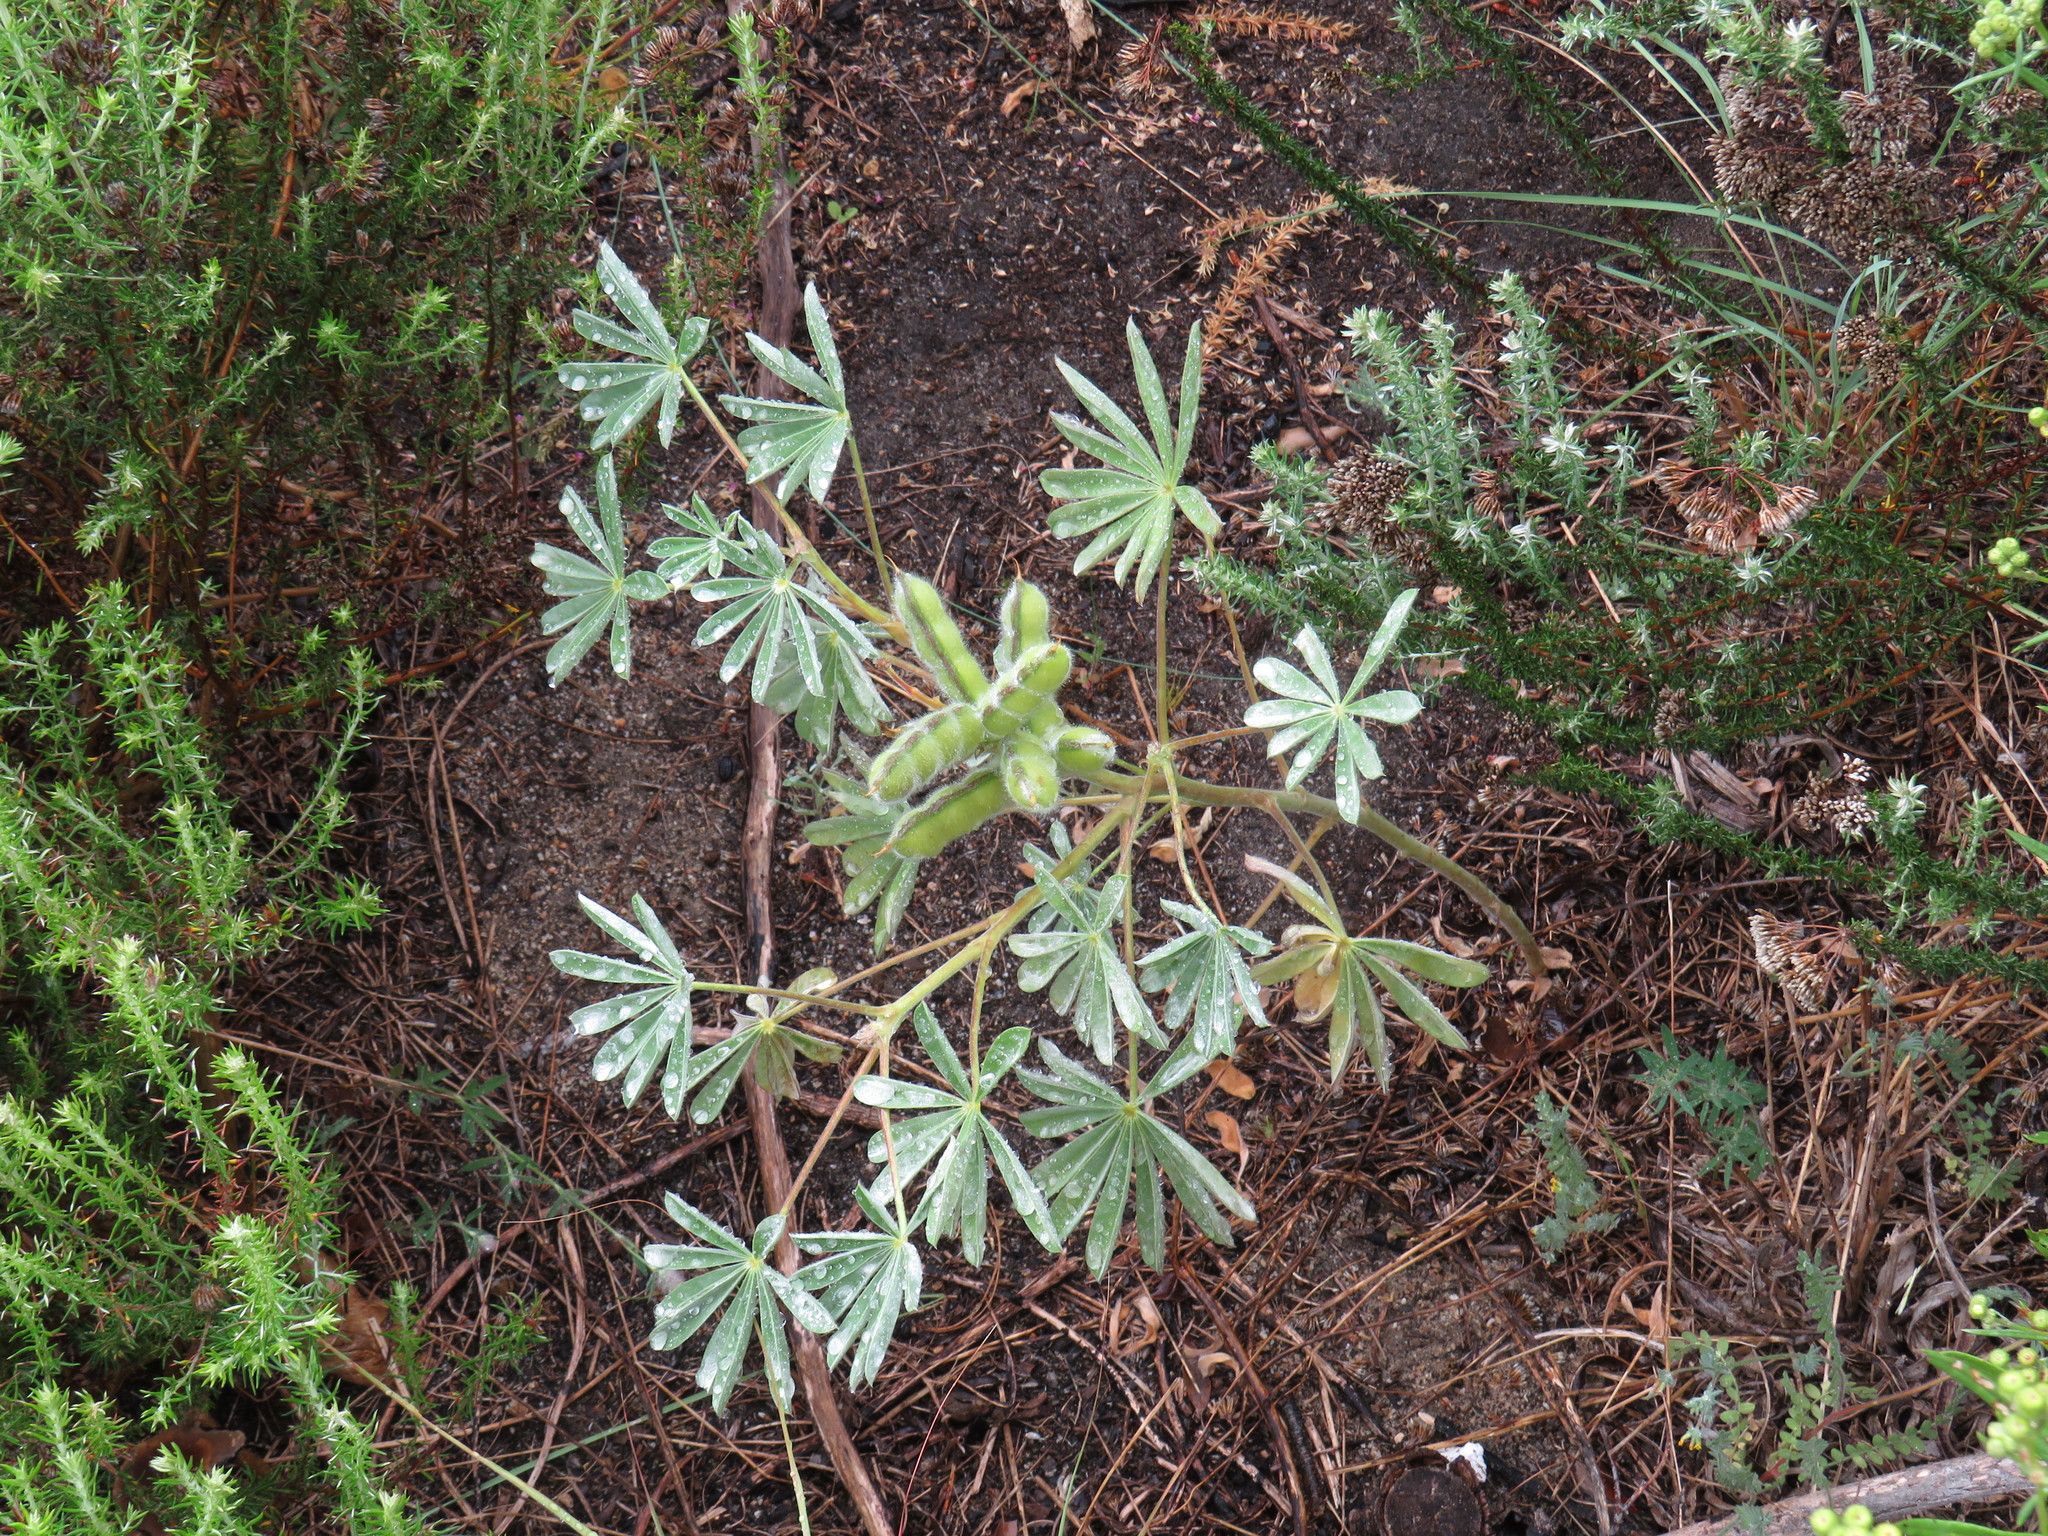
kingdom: Plantae
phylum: Tracheophyta
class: Magnoliopsida
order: Fabales
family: Fabaceae
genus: Lupinus
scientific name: Lupinus cosentinii
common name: Hairy blue lupin
